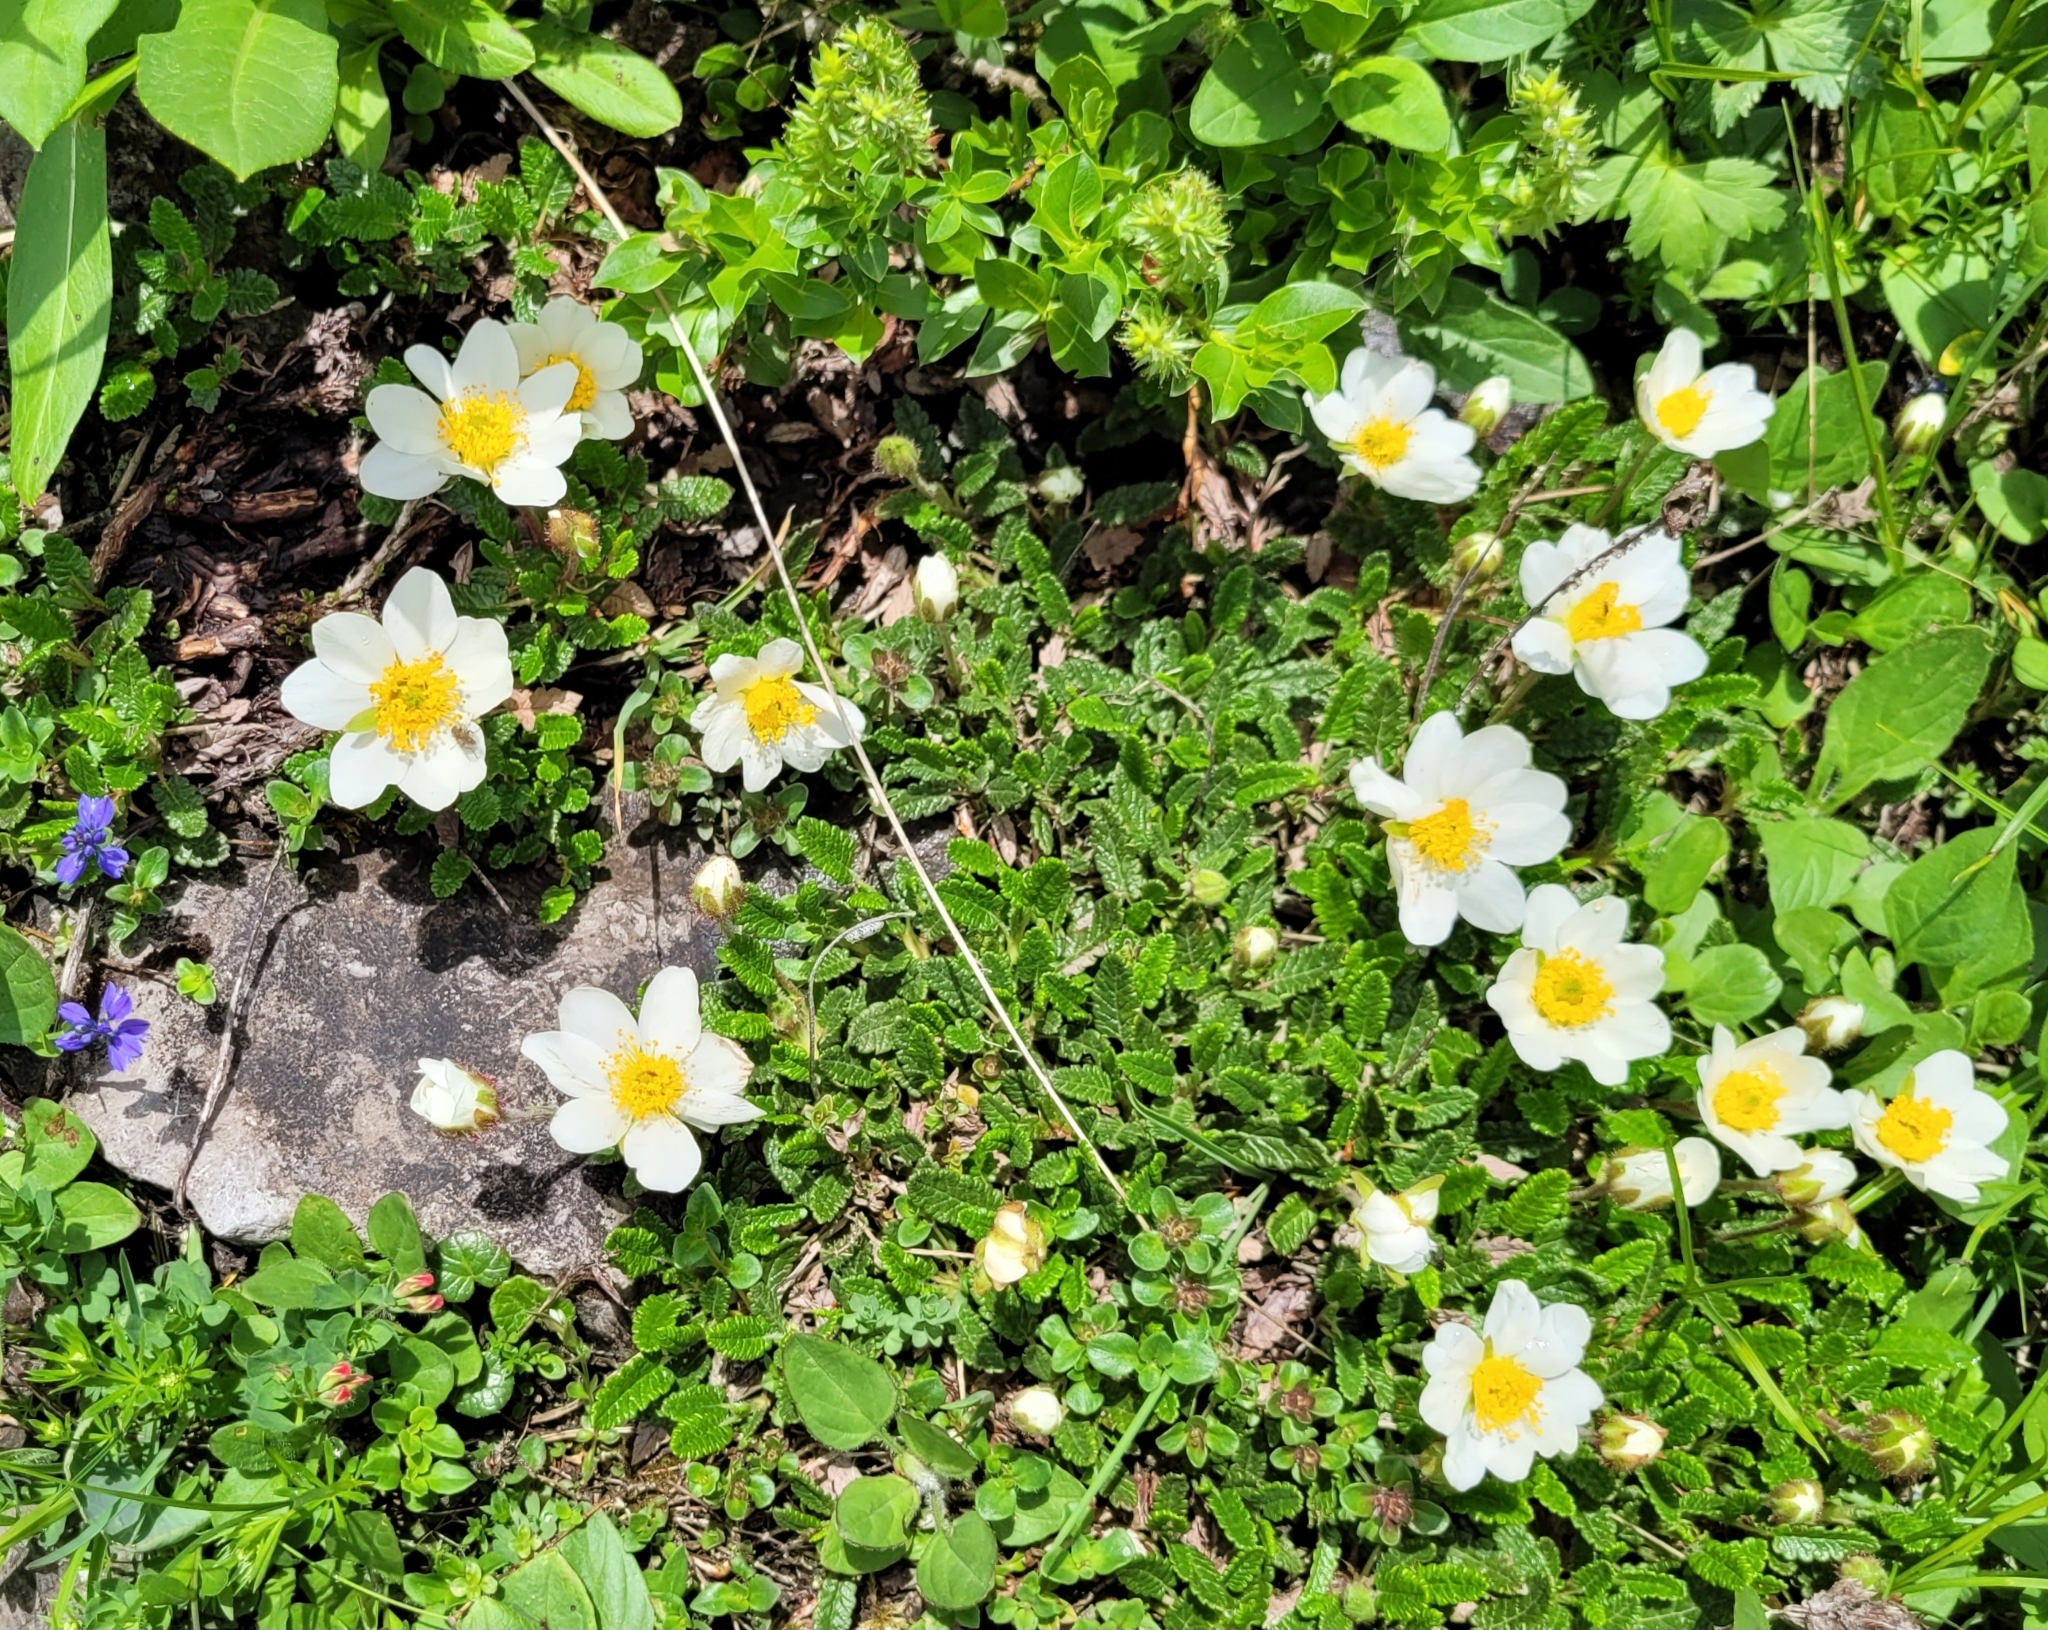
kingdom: Plantae
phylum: Tracheophyta
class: Magnoliopsida
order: Rosales
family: Rosaceae
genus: Dryas
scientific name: Dryas octopetala
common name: Eight-petal mountain-avens
